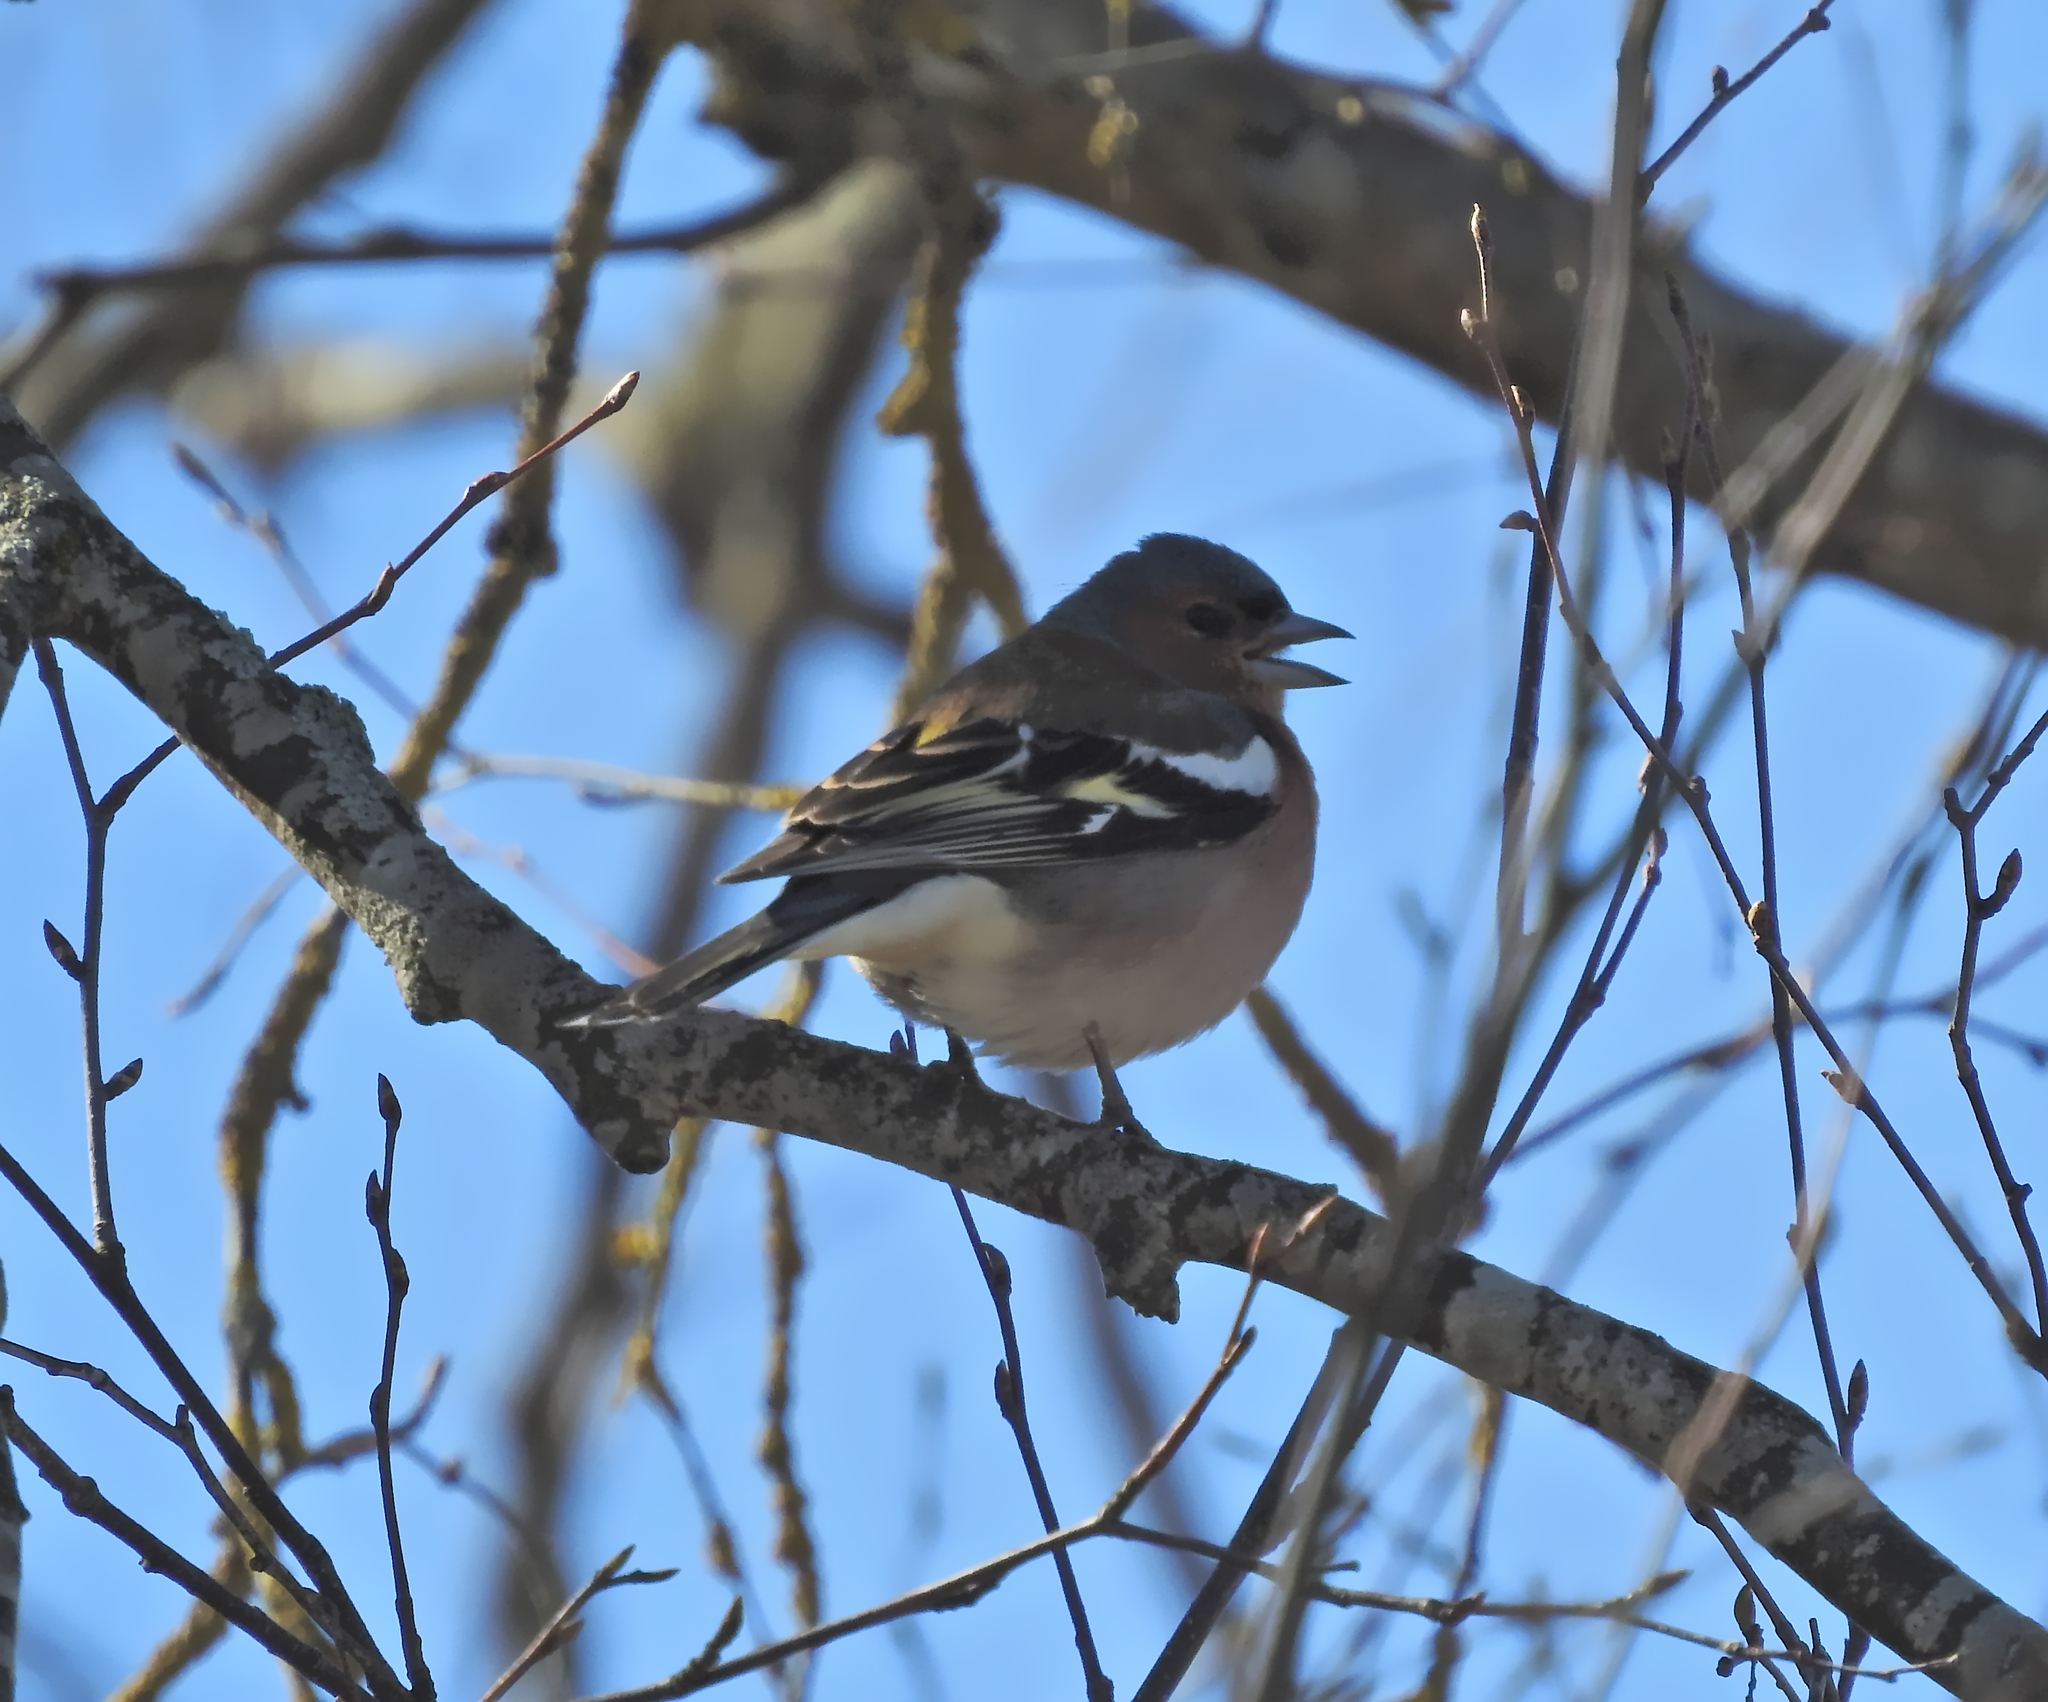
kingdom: Animalia
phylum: Chordata
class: Aves
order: Passeriformes
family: Fringillidae
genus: Fringilla
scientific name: Fringilla coelebs
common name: Common chaffinch
